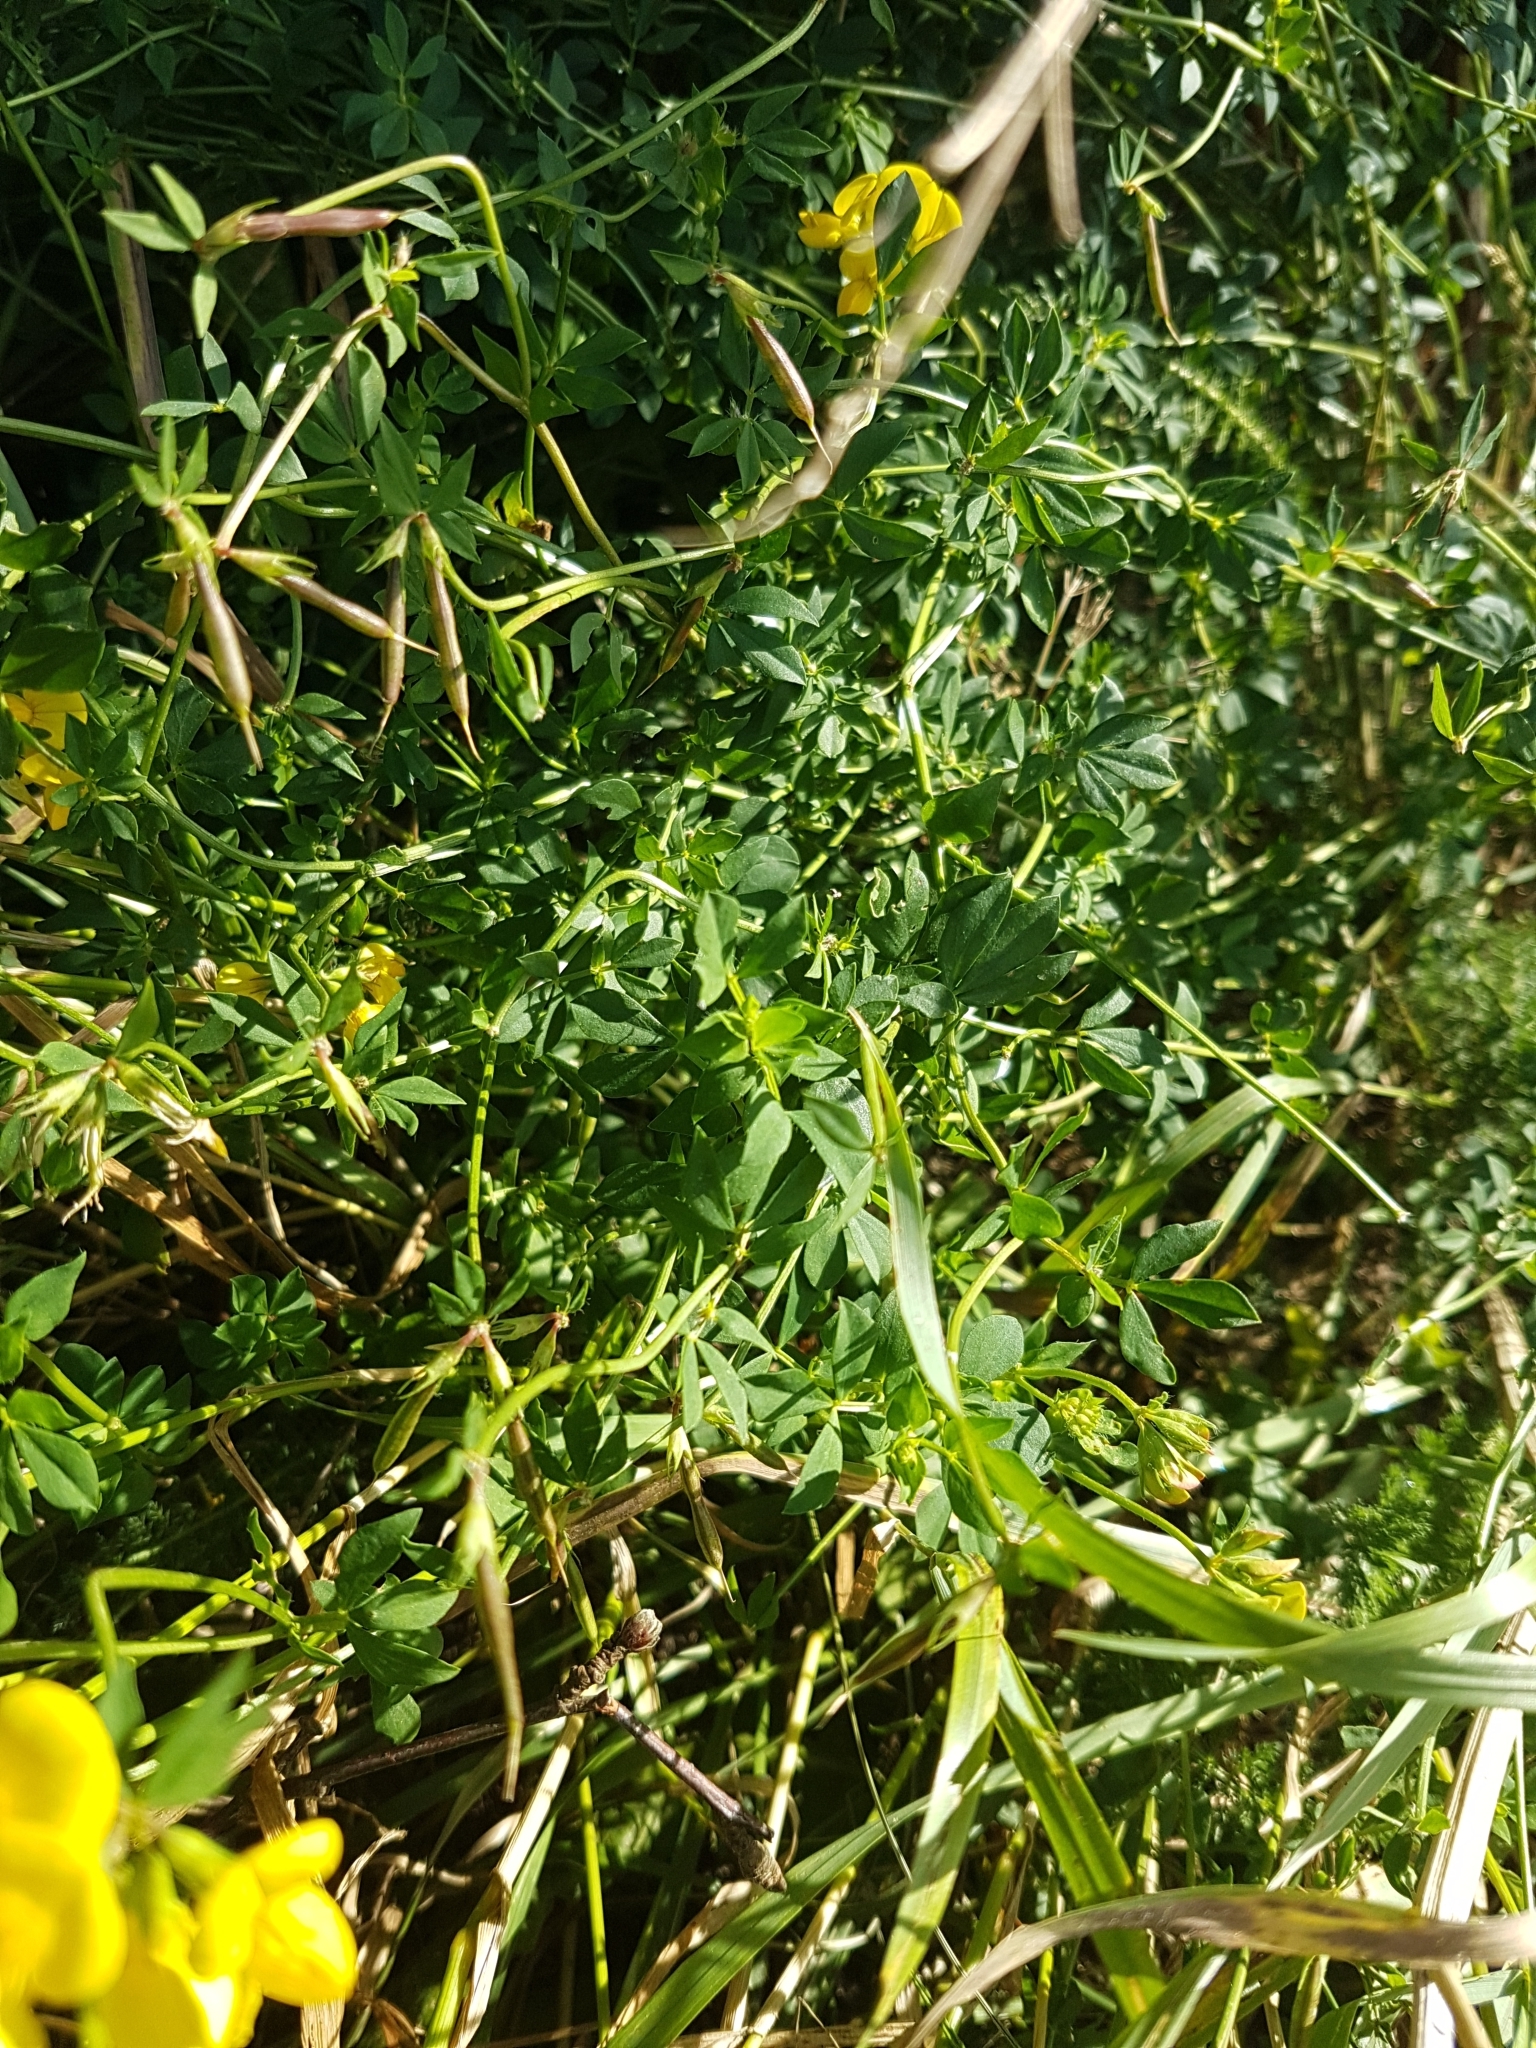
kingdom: Plantae
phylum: Tracheophyta
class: Magnoliopsida
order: Fabales
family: Fabaceae
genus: Lotus
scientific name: Lotus corniculatus
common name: Common bird's-foot-trefoil
